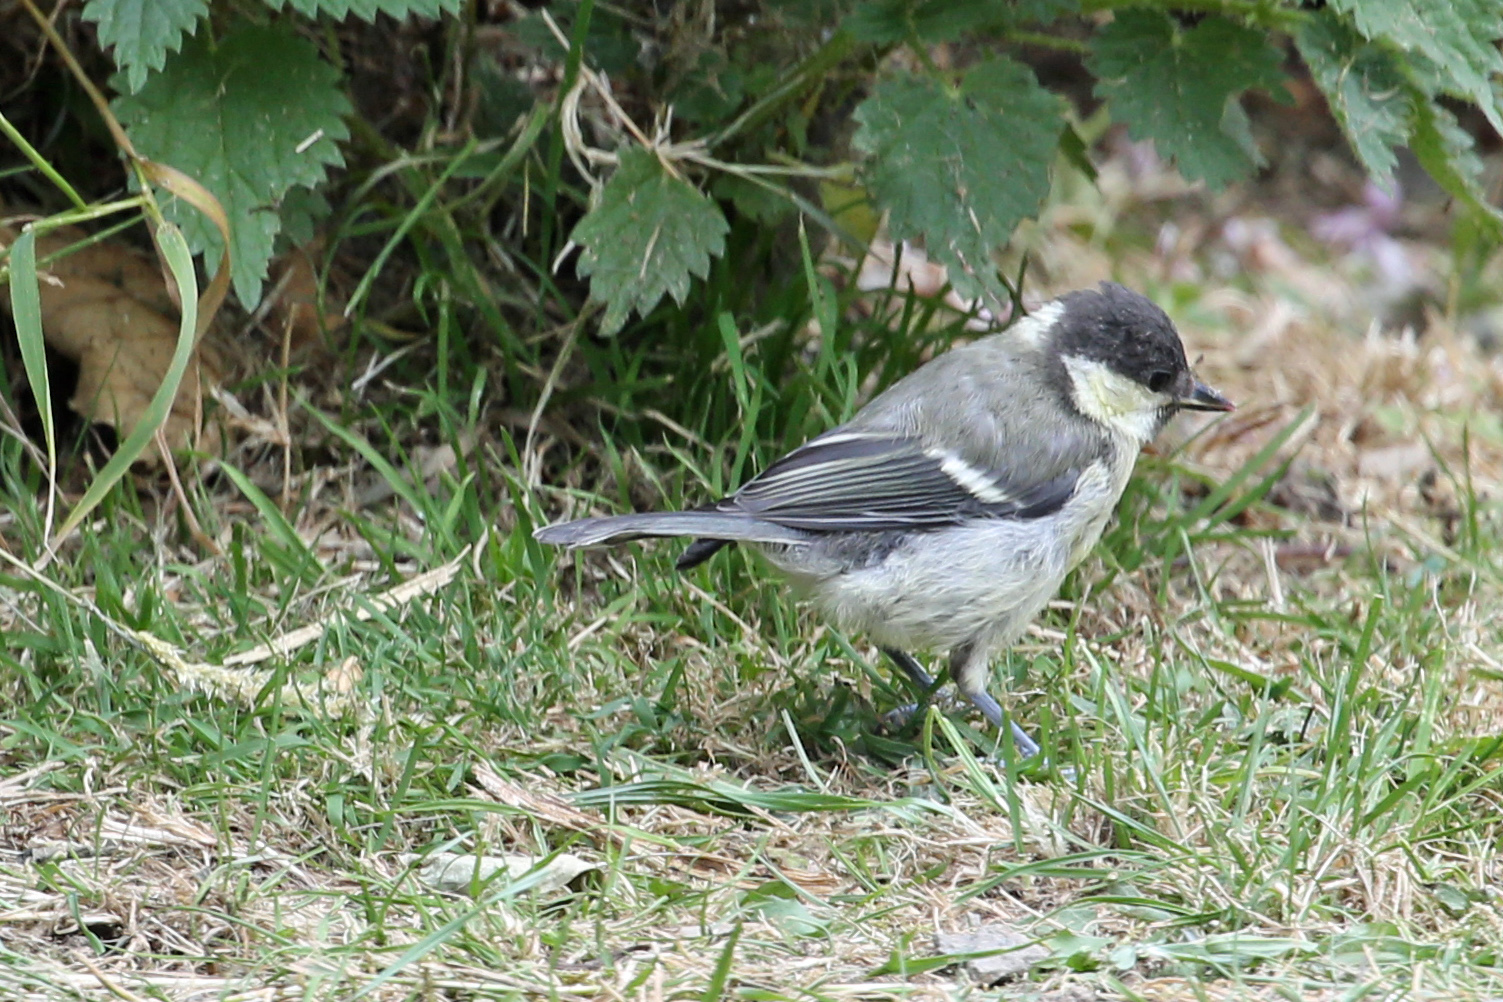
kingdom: Animalia
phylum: Chordata
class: Aves
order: Passeriformes
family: Paridae
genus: Parus
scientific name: Parus major
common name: Great tit
